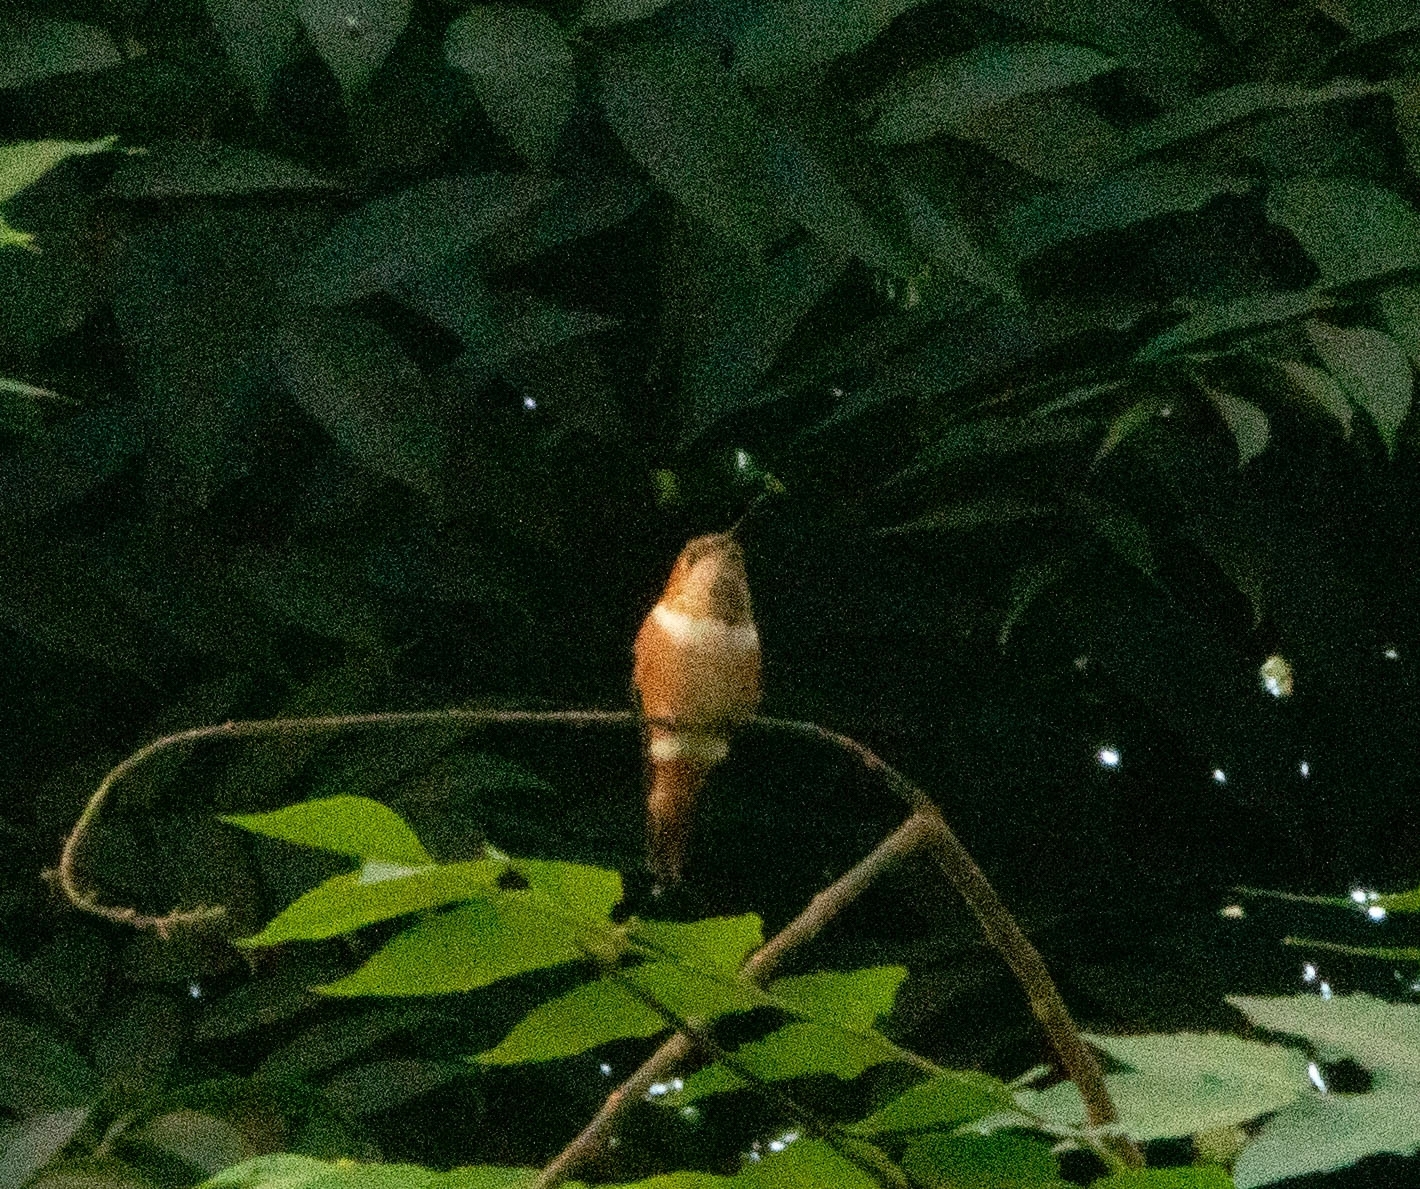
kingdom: Animalia
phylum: Chordata
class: Aves
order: Apodiformes
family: Trochilidae
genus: Selasphorus
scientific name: Selasphorus sasin
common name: Allen's hummingbird
